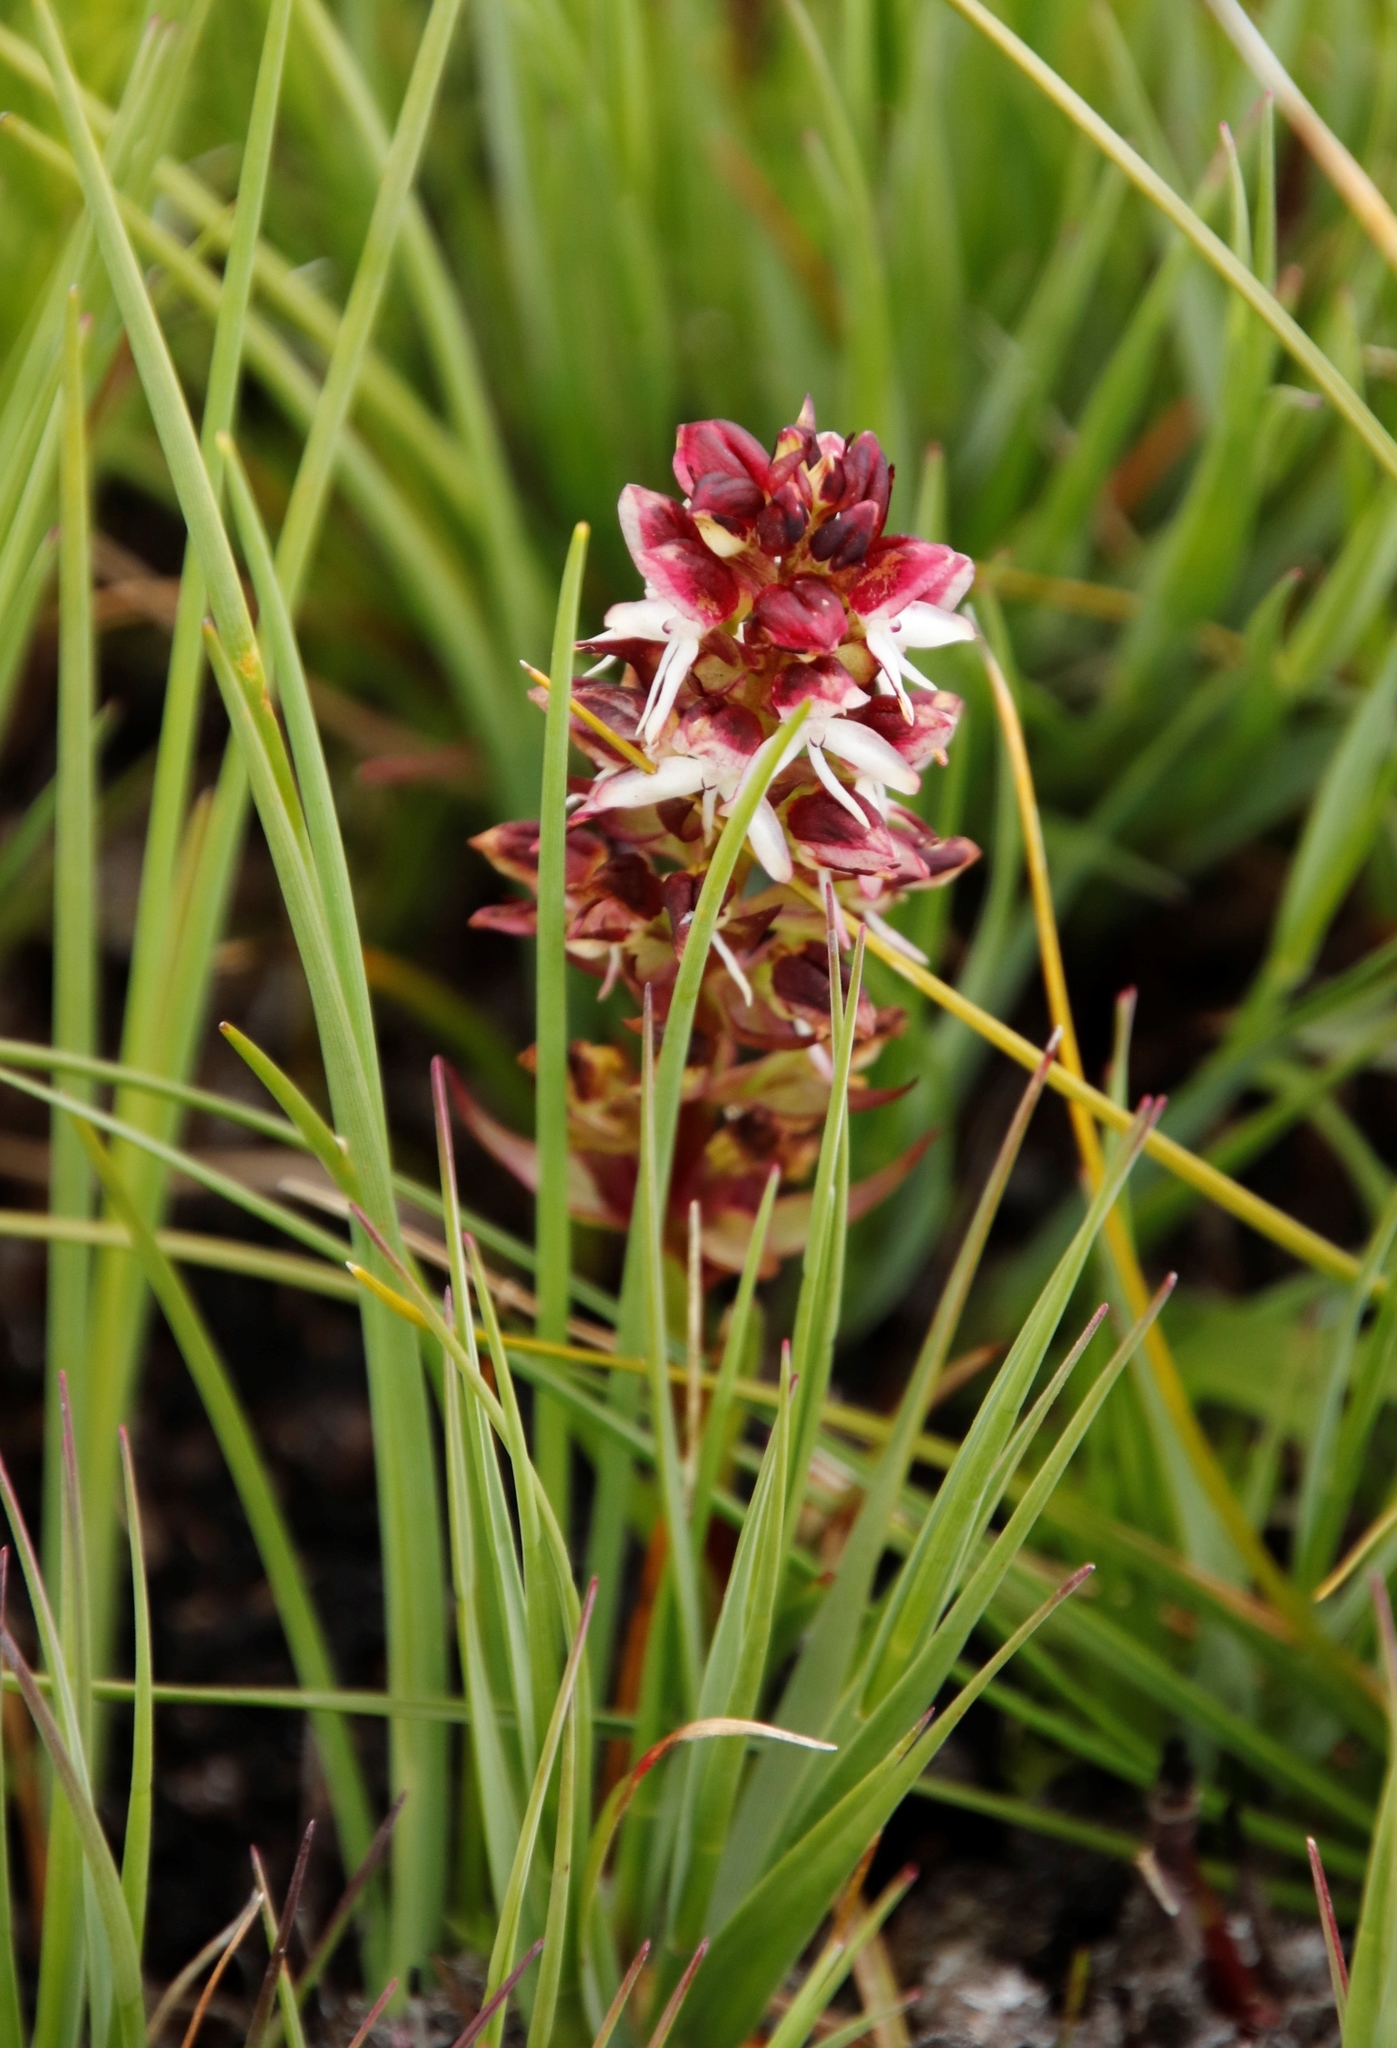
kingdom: Plantae
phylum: Tracheophyta
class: Liliopsida
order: Asparagales
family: Orchidaceae
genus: Disa
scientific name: Disa albomagentea
